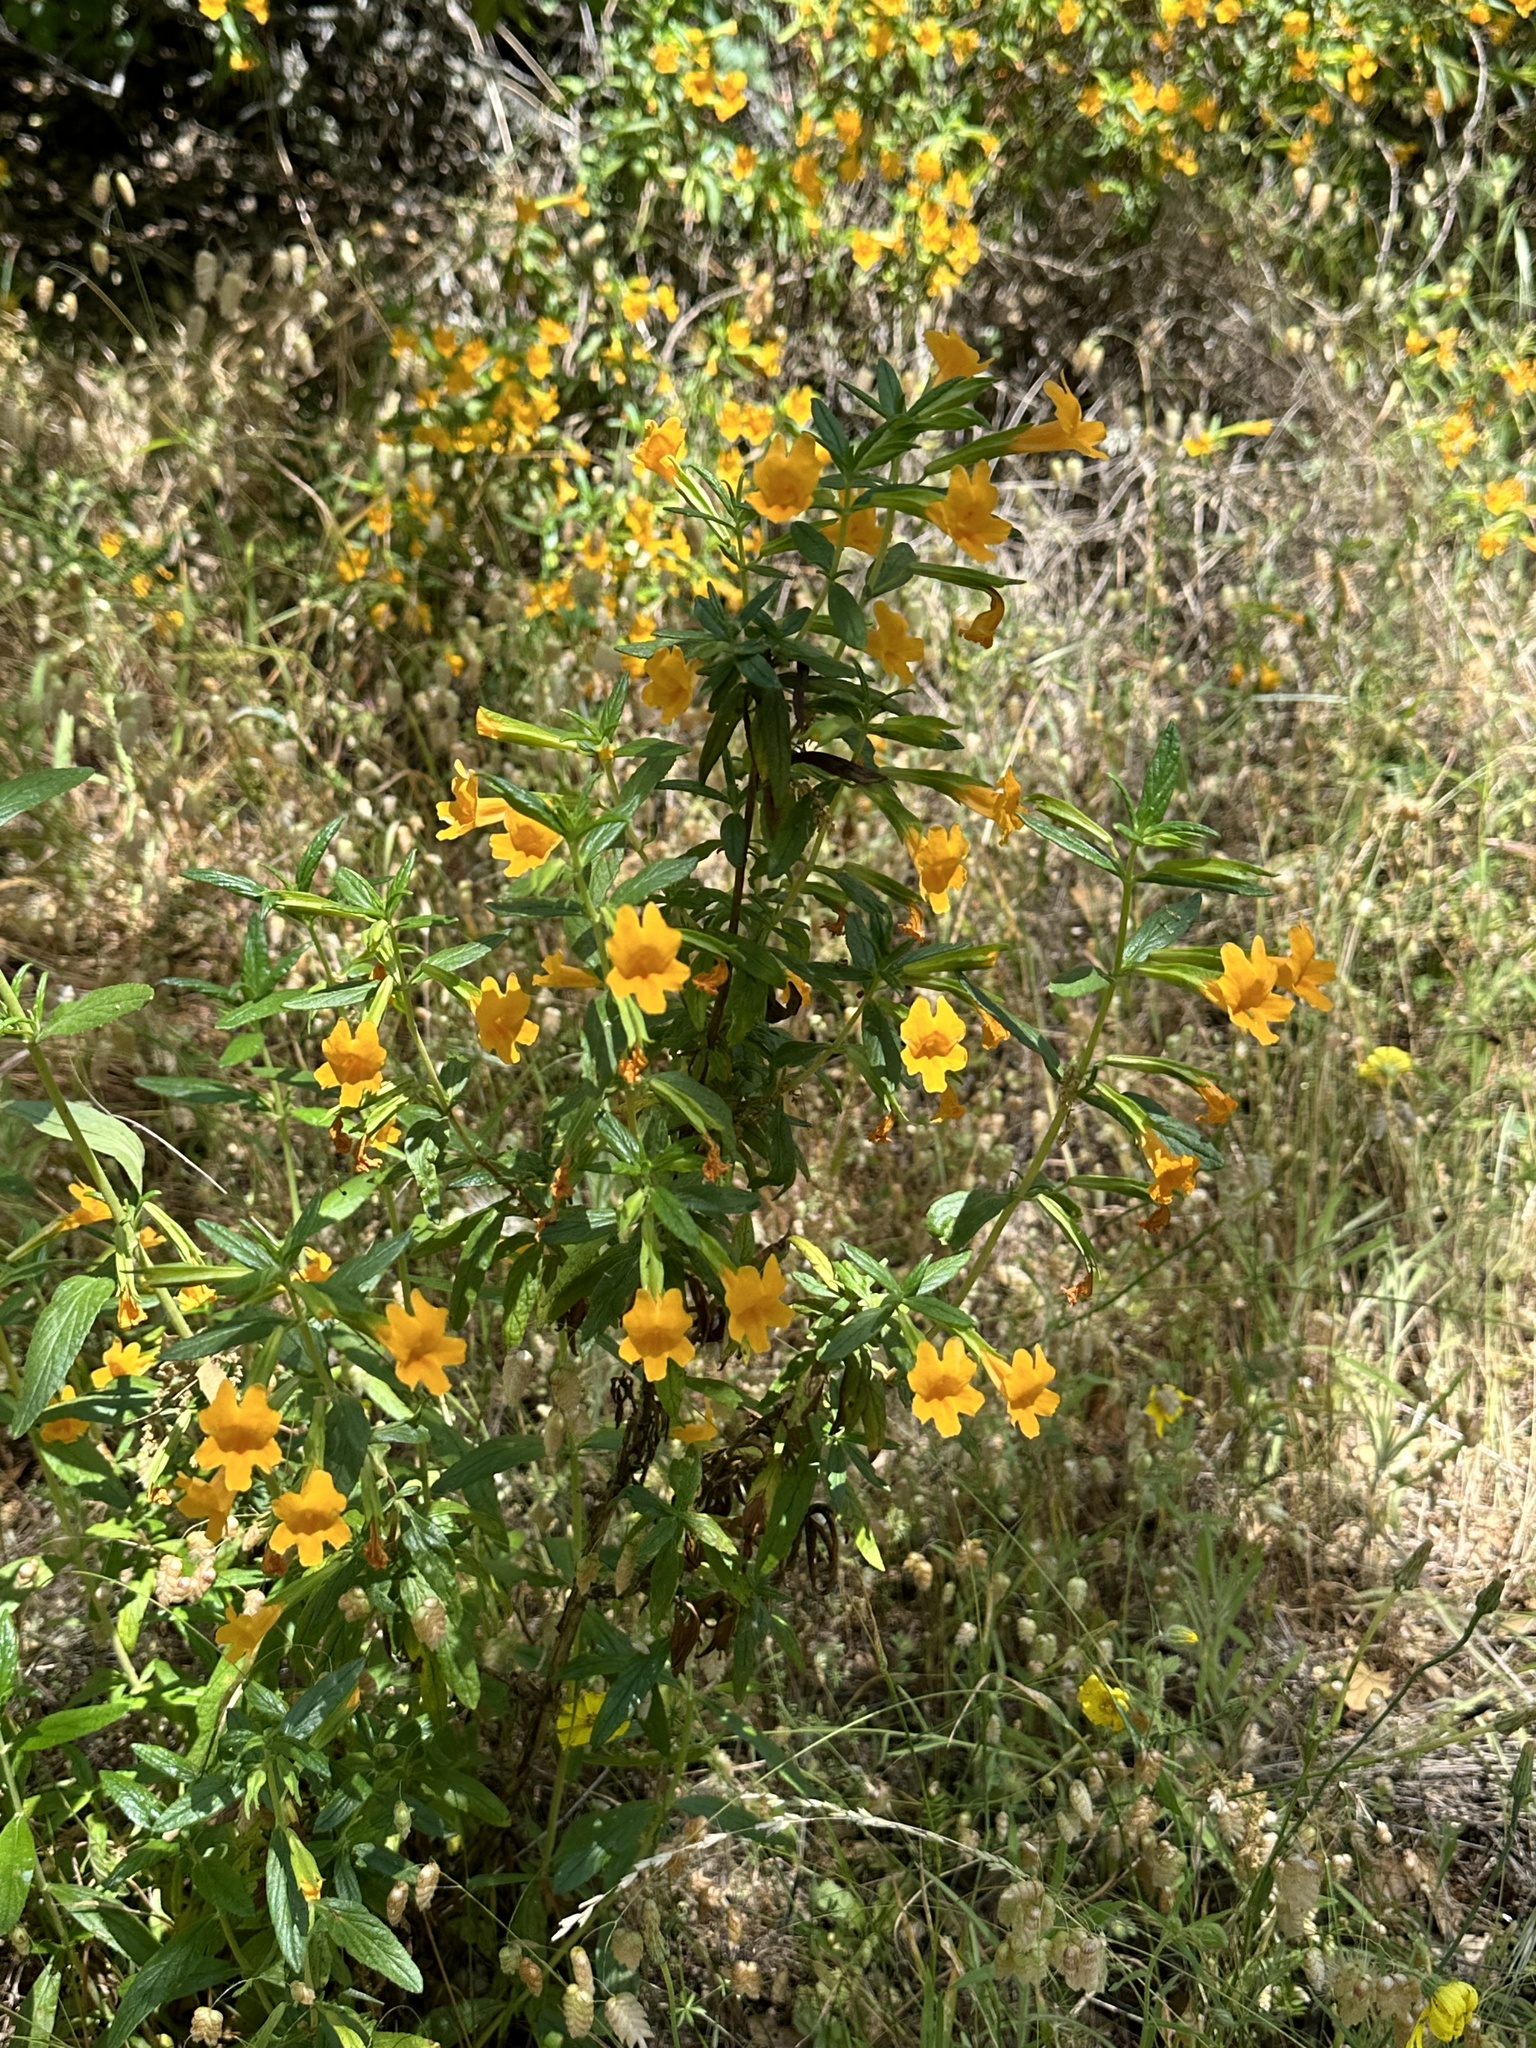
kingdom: Plantae
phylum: Tracheophyta
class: Magnoliopsida
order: Lamiales
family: Phrymaceae
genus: Diplacus
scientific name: Diplacus aurantiacus
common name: Bush monkey-flower
